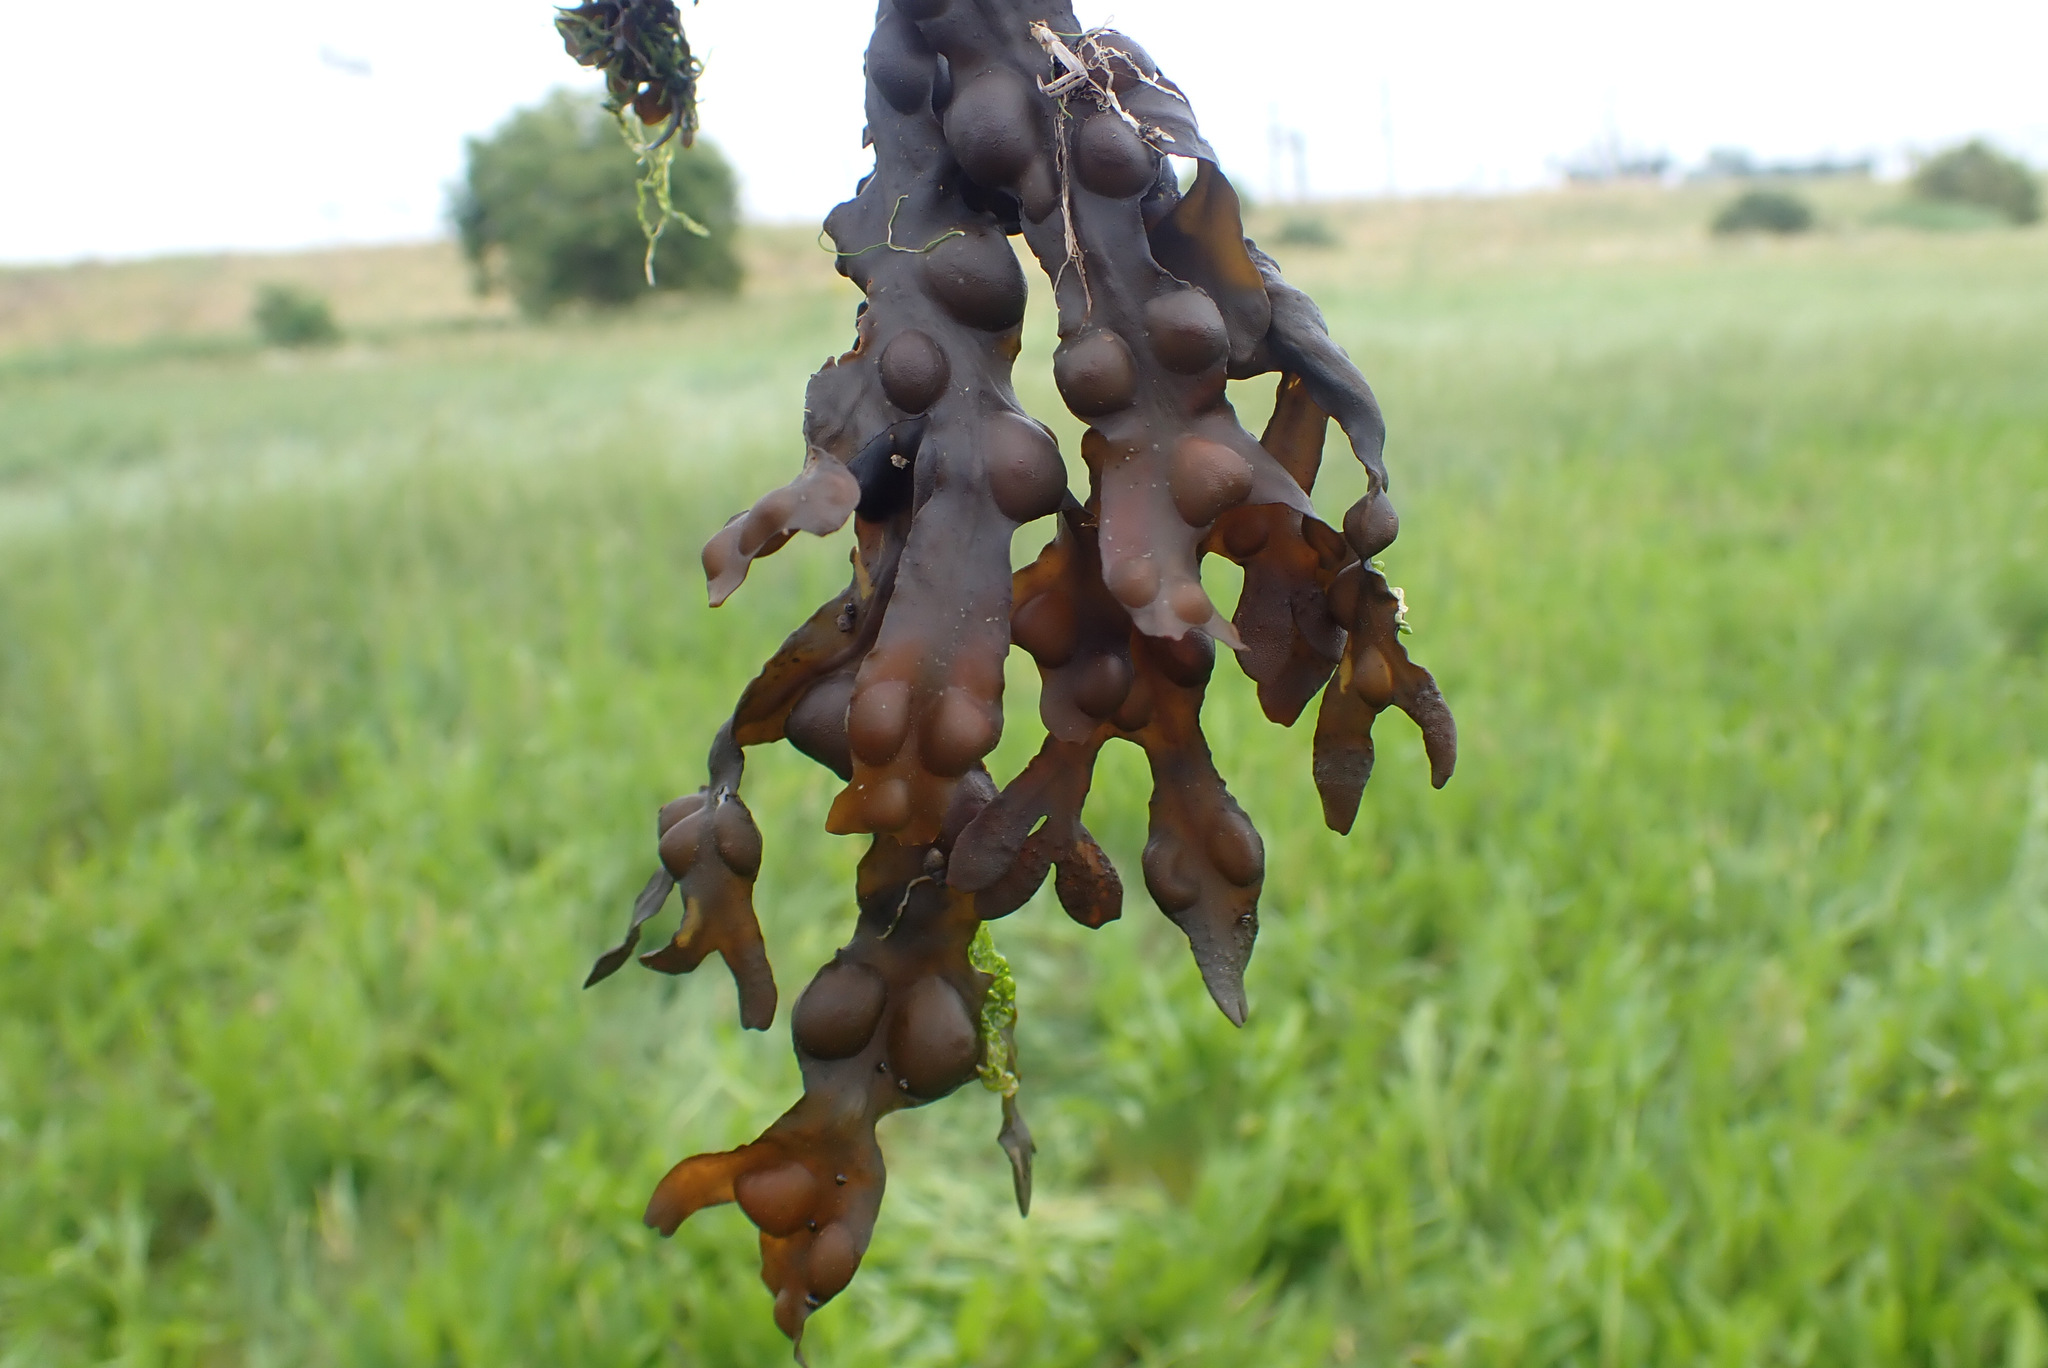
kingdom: Chromista
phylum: Ochrophyta
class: Phaeophyceae
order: Fucales
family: Fucaceae
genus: Fucus
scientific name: Fucus vesiculosus
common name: Bladder wrack
